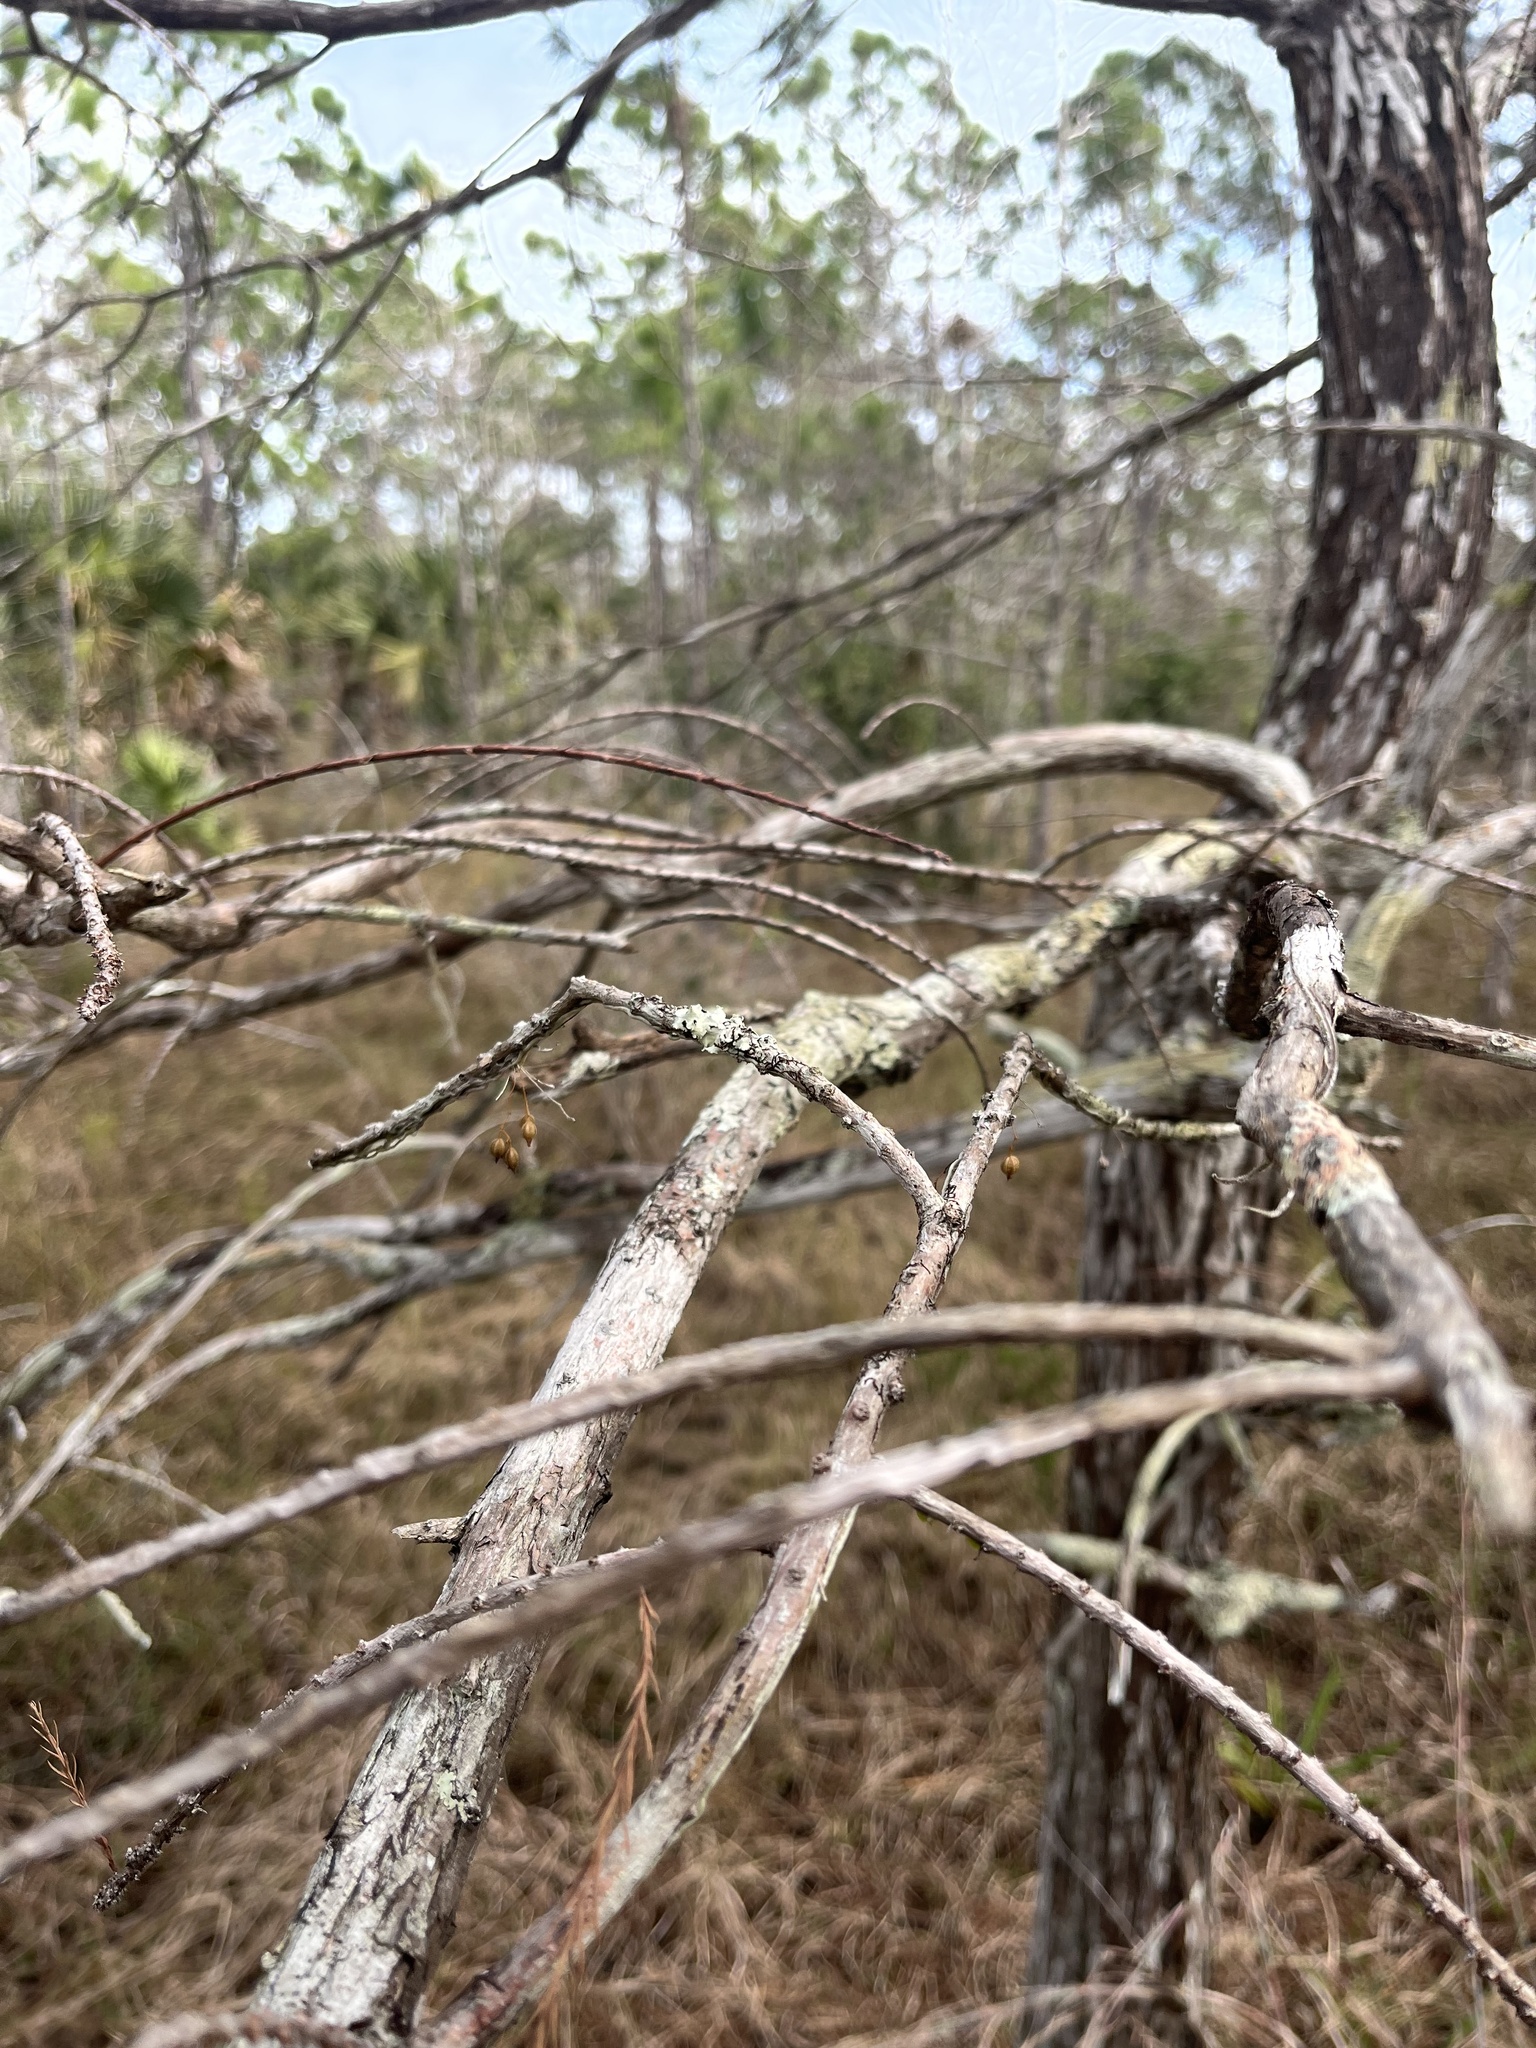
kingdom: Plantae
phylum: Tracheophyta
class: Liliopsida
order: Asparagales
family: Orchidaceae
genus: Dendrophylax
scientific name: Dendrophylax porrectus
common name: Needleroot airplant orchid
